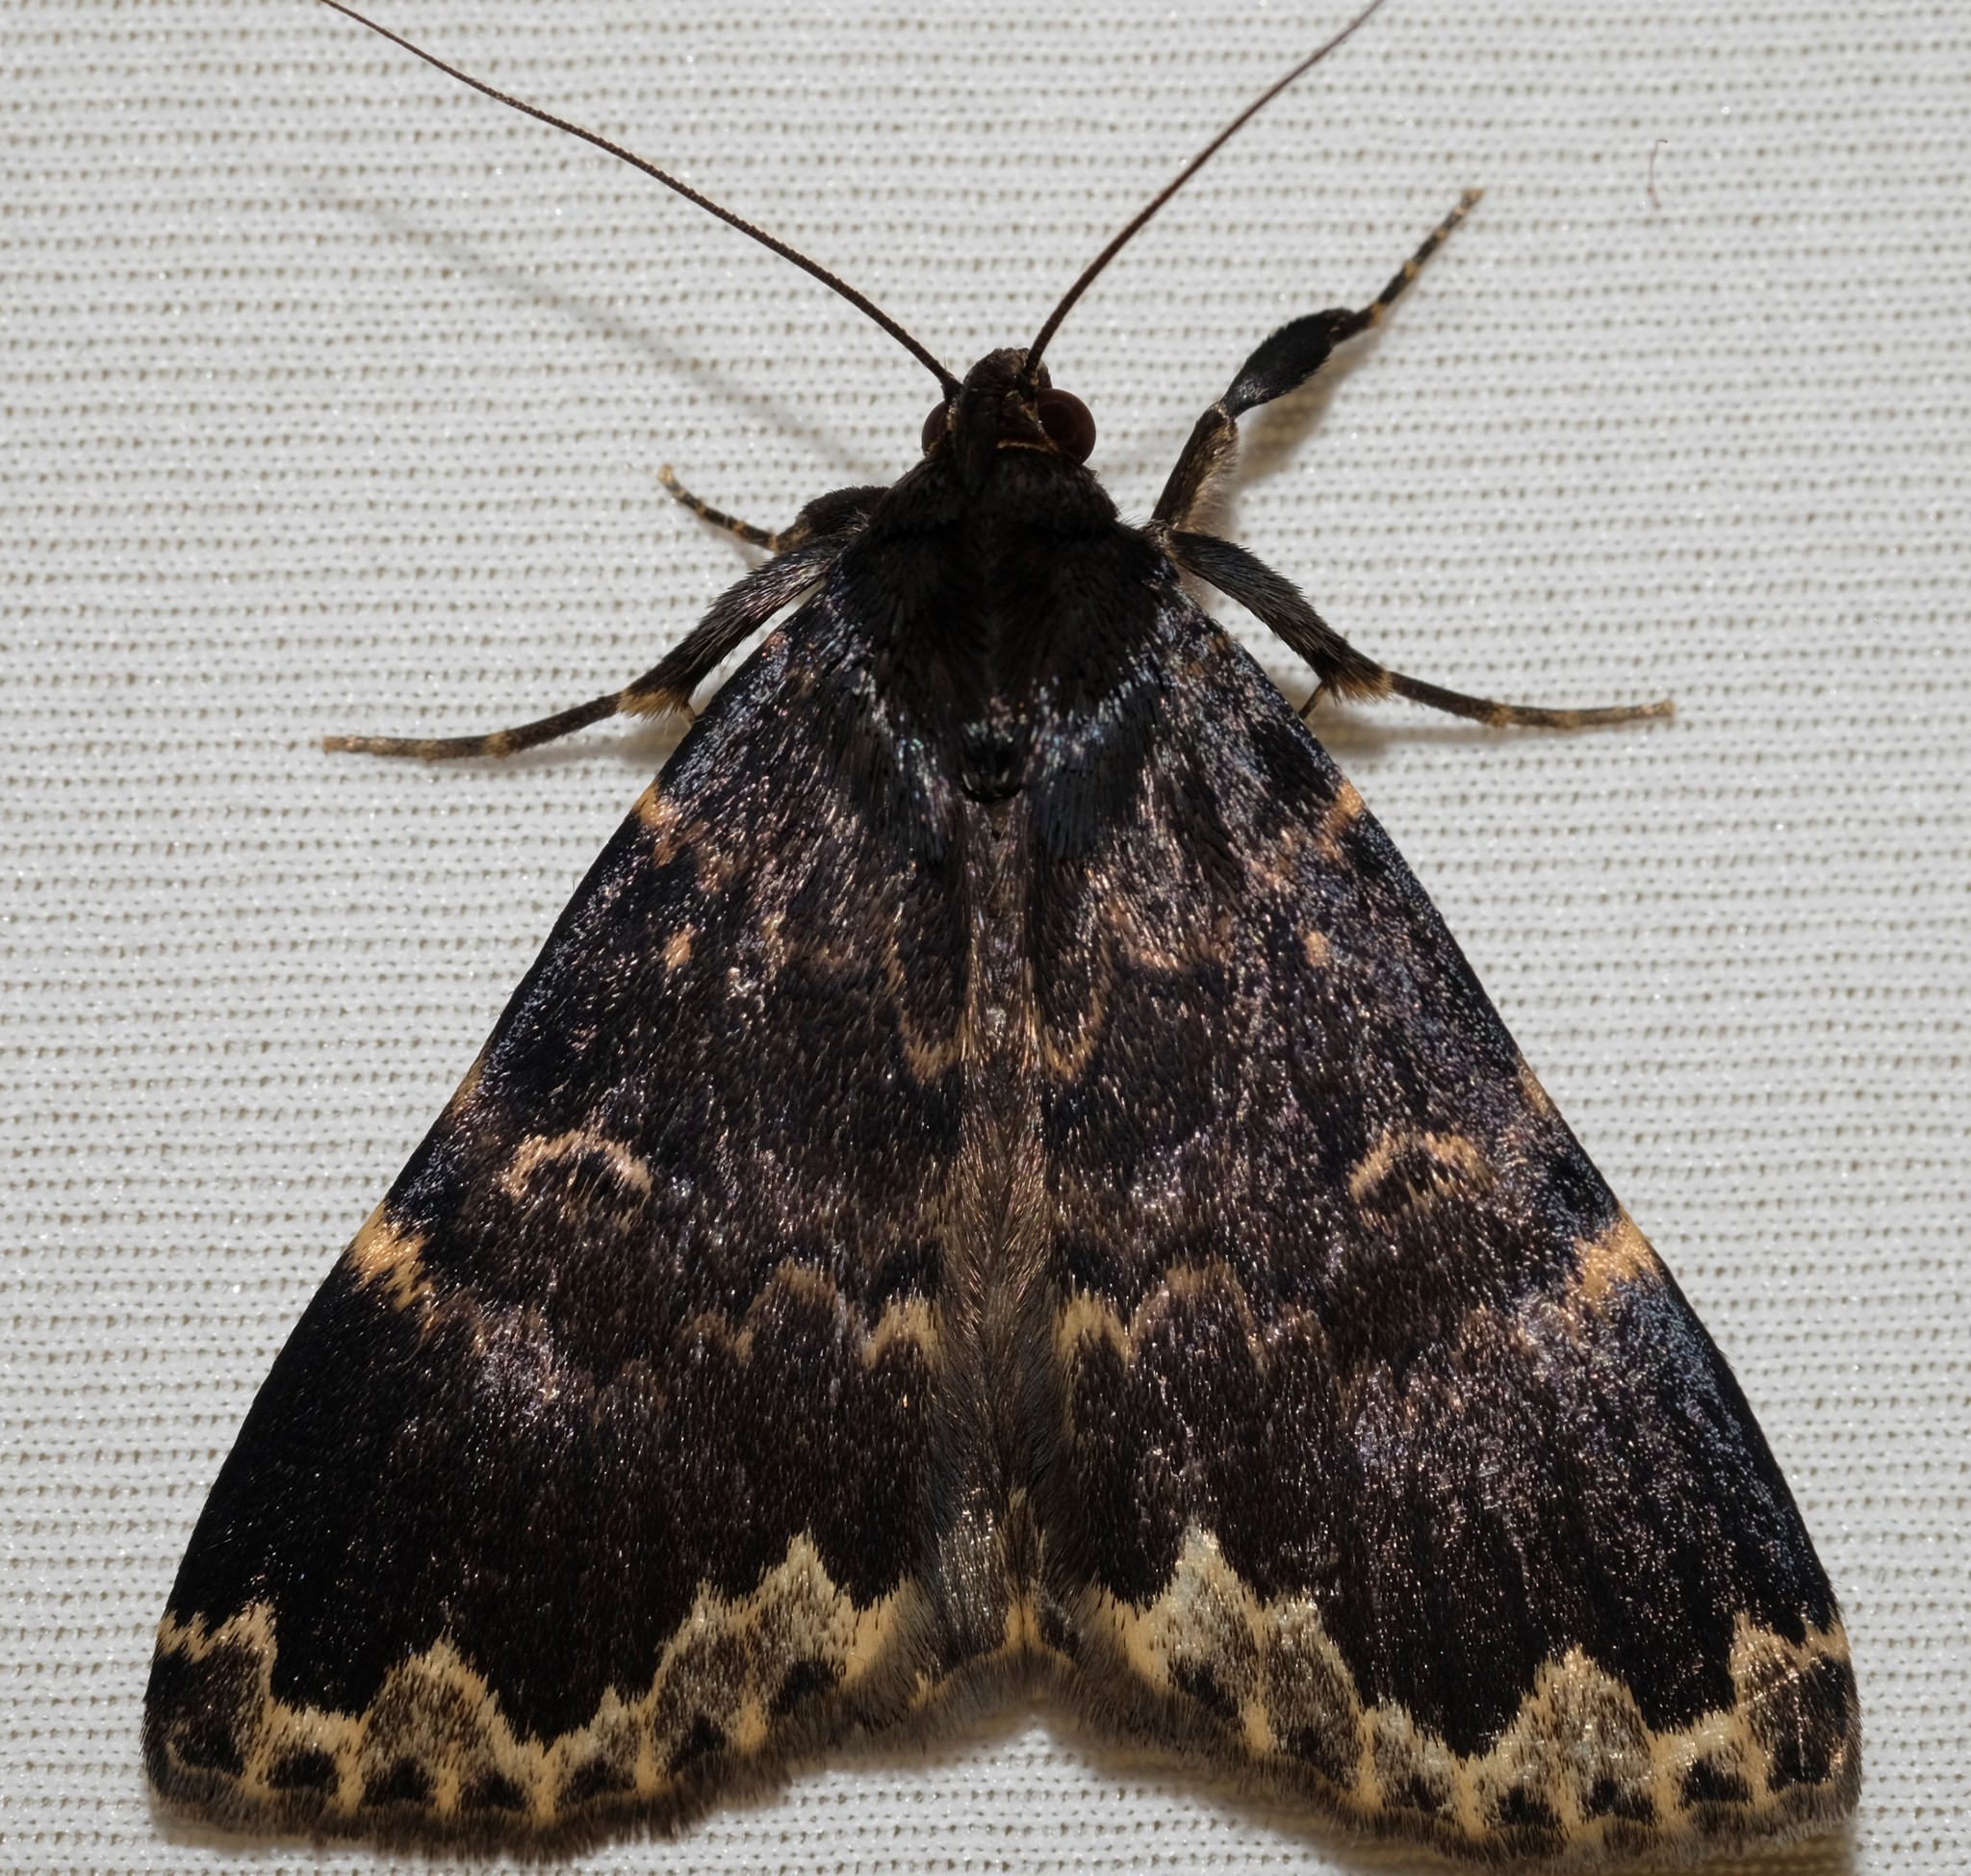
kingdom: Animalia
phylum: Arthropoda
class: Insecta
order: Lepidoptera
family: Erebidae
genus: Mormoscopa
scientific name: Mormoscopa sordescens
